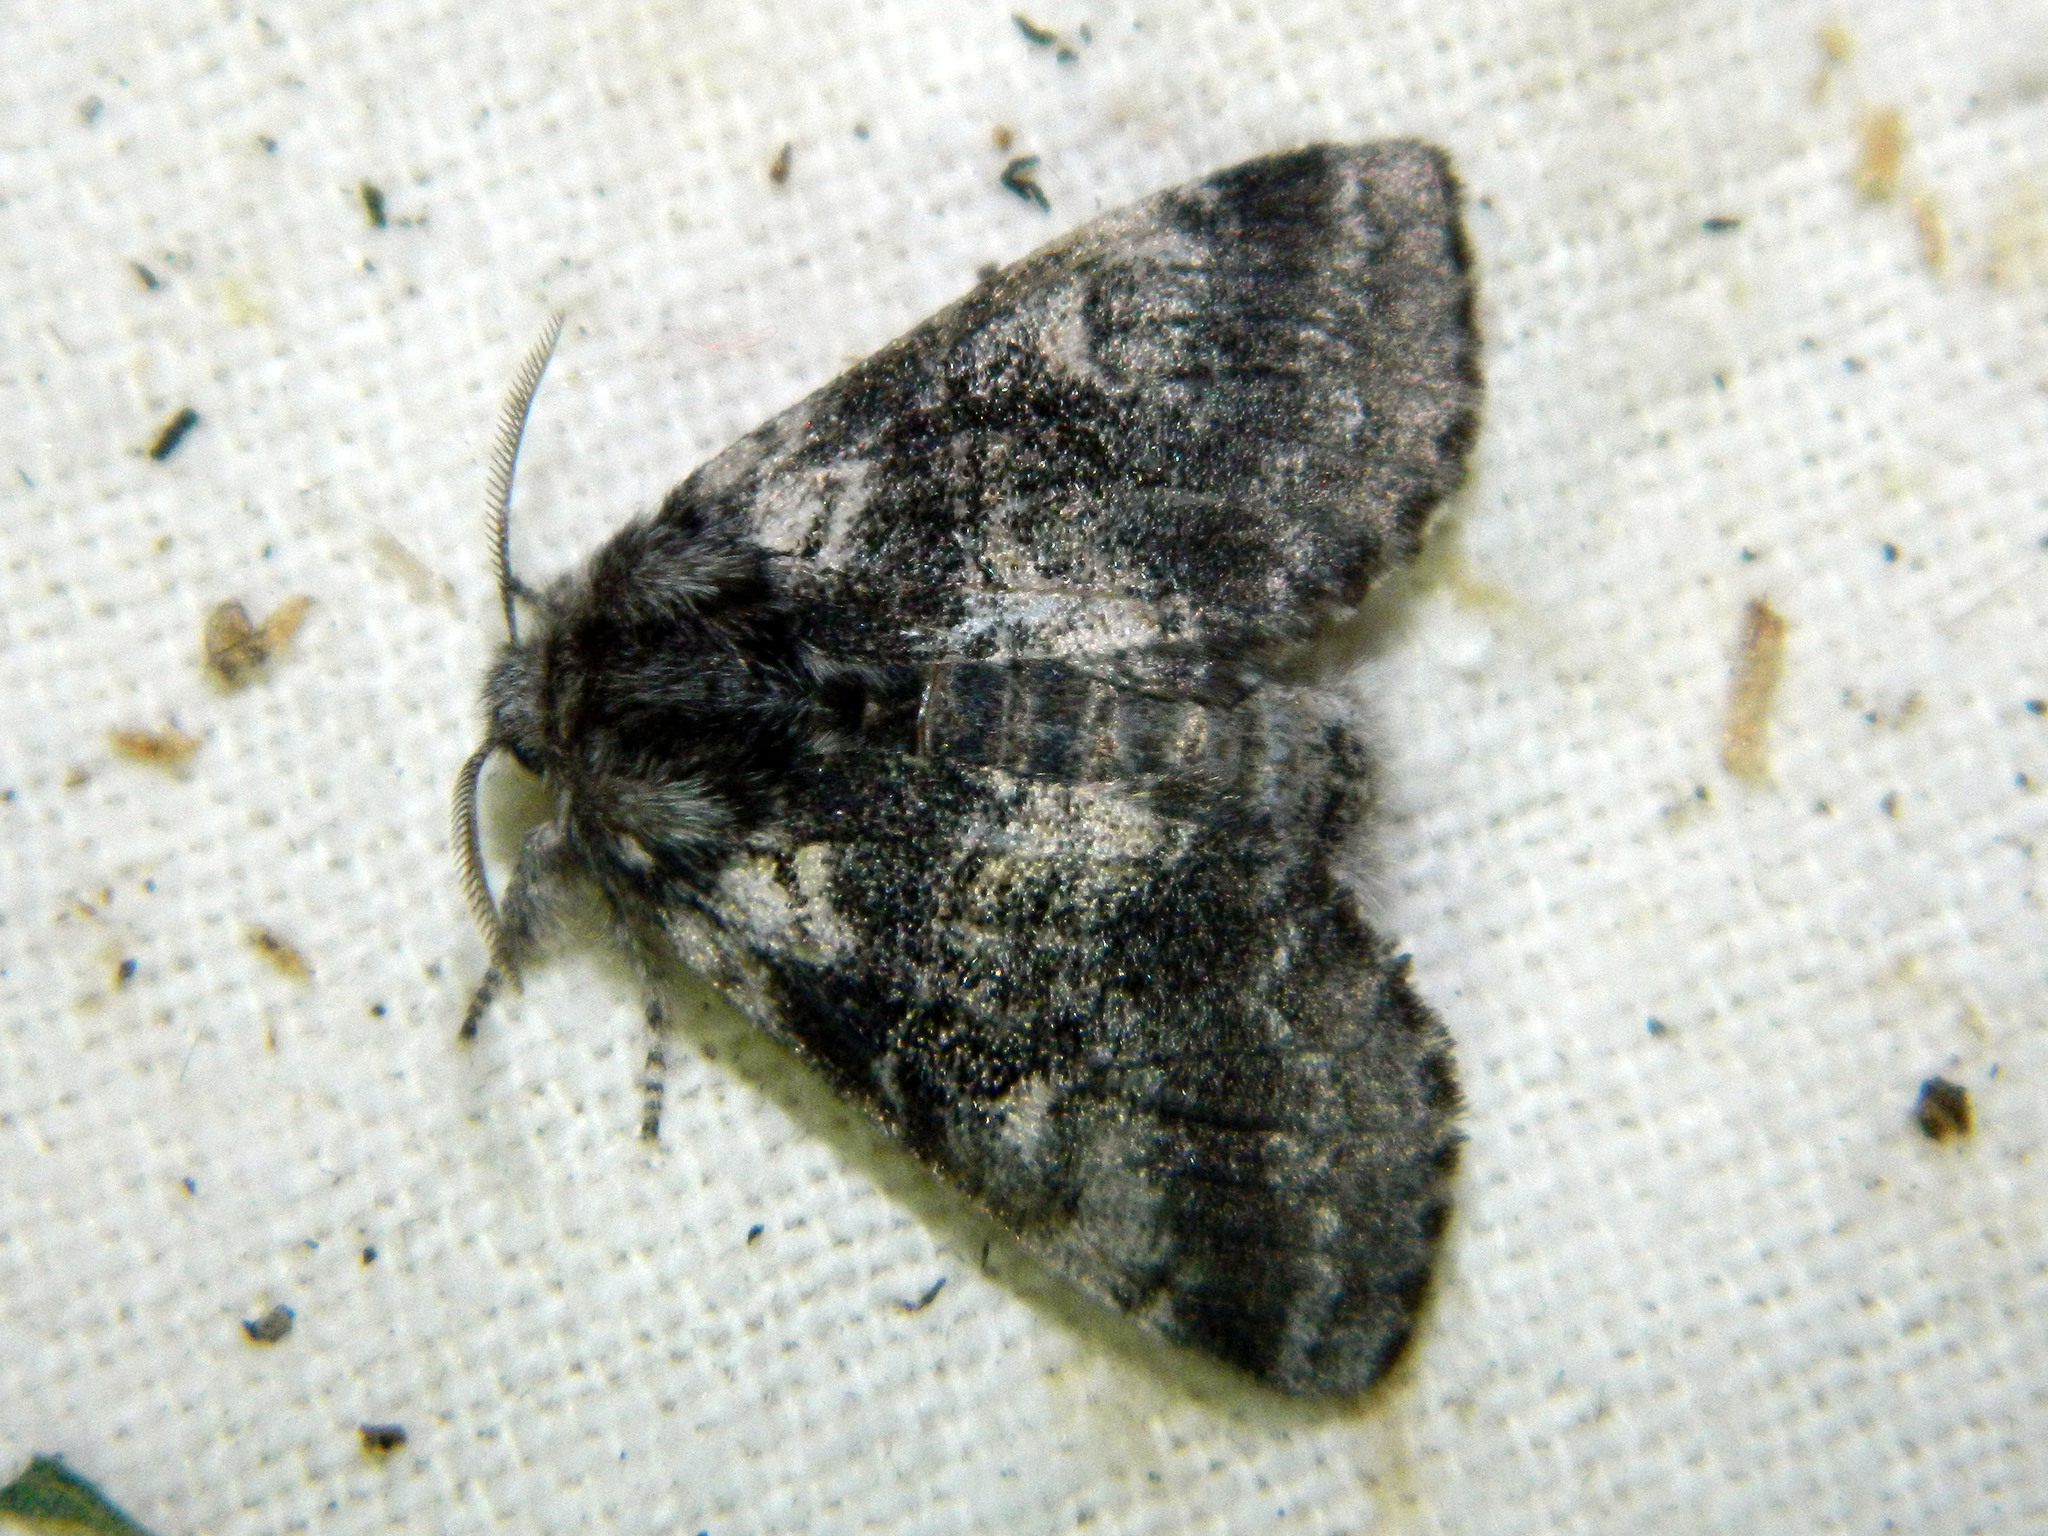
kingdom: Animalia
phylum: Arthropoda
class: Insecta
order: Lepidoptera
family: Notodontidae
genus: Gluphisia
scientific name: Gluphisia septentrionis
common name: Common gluphisia
